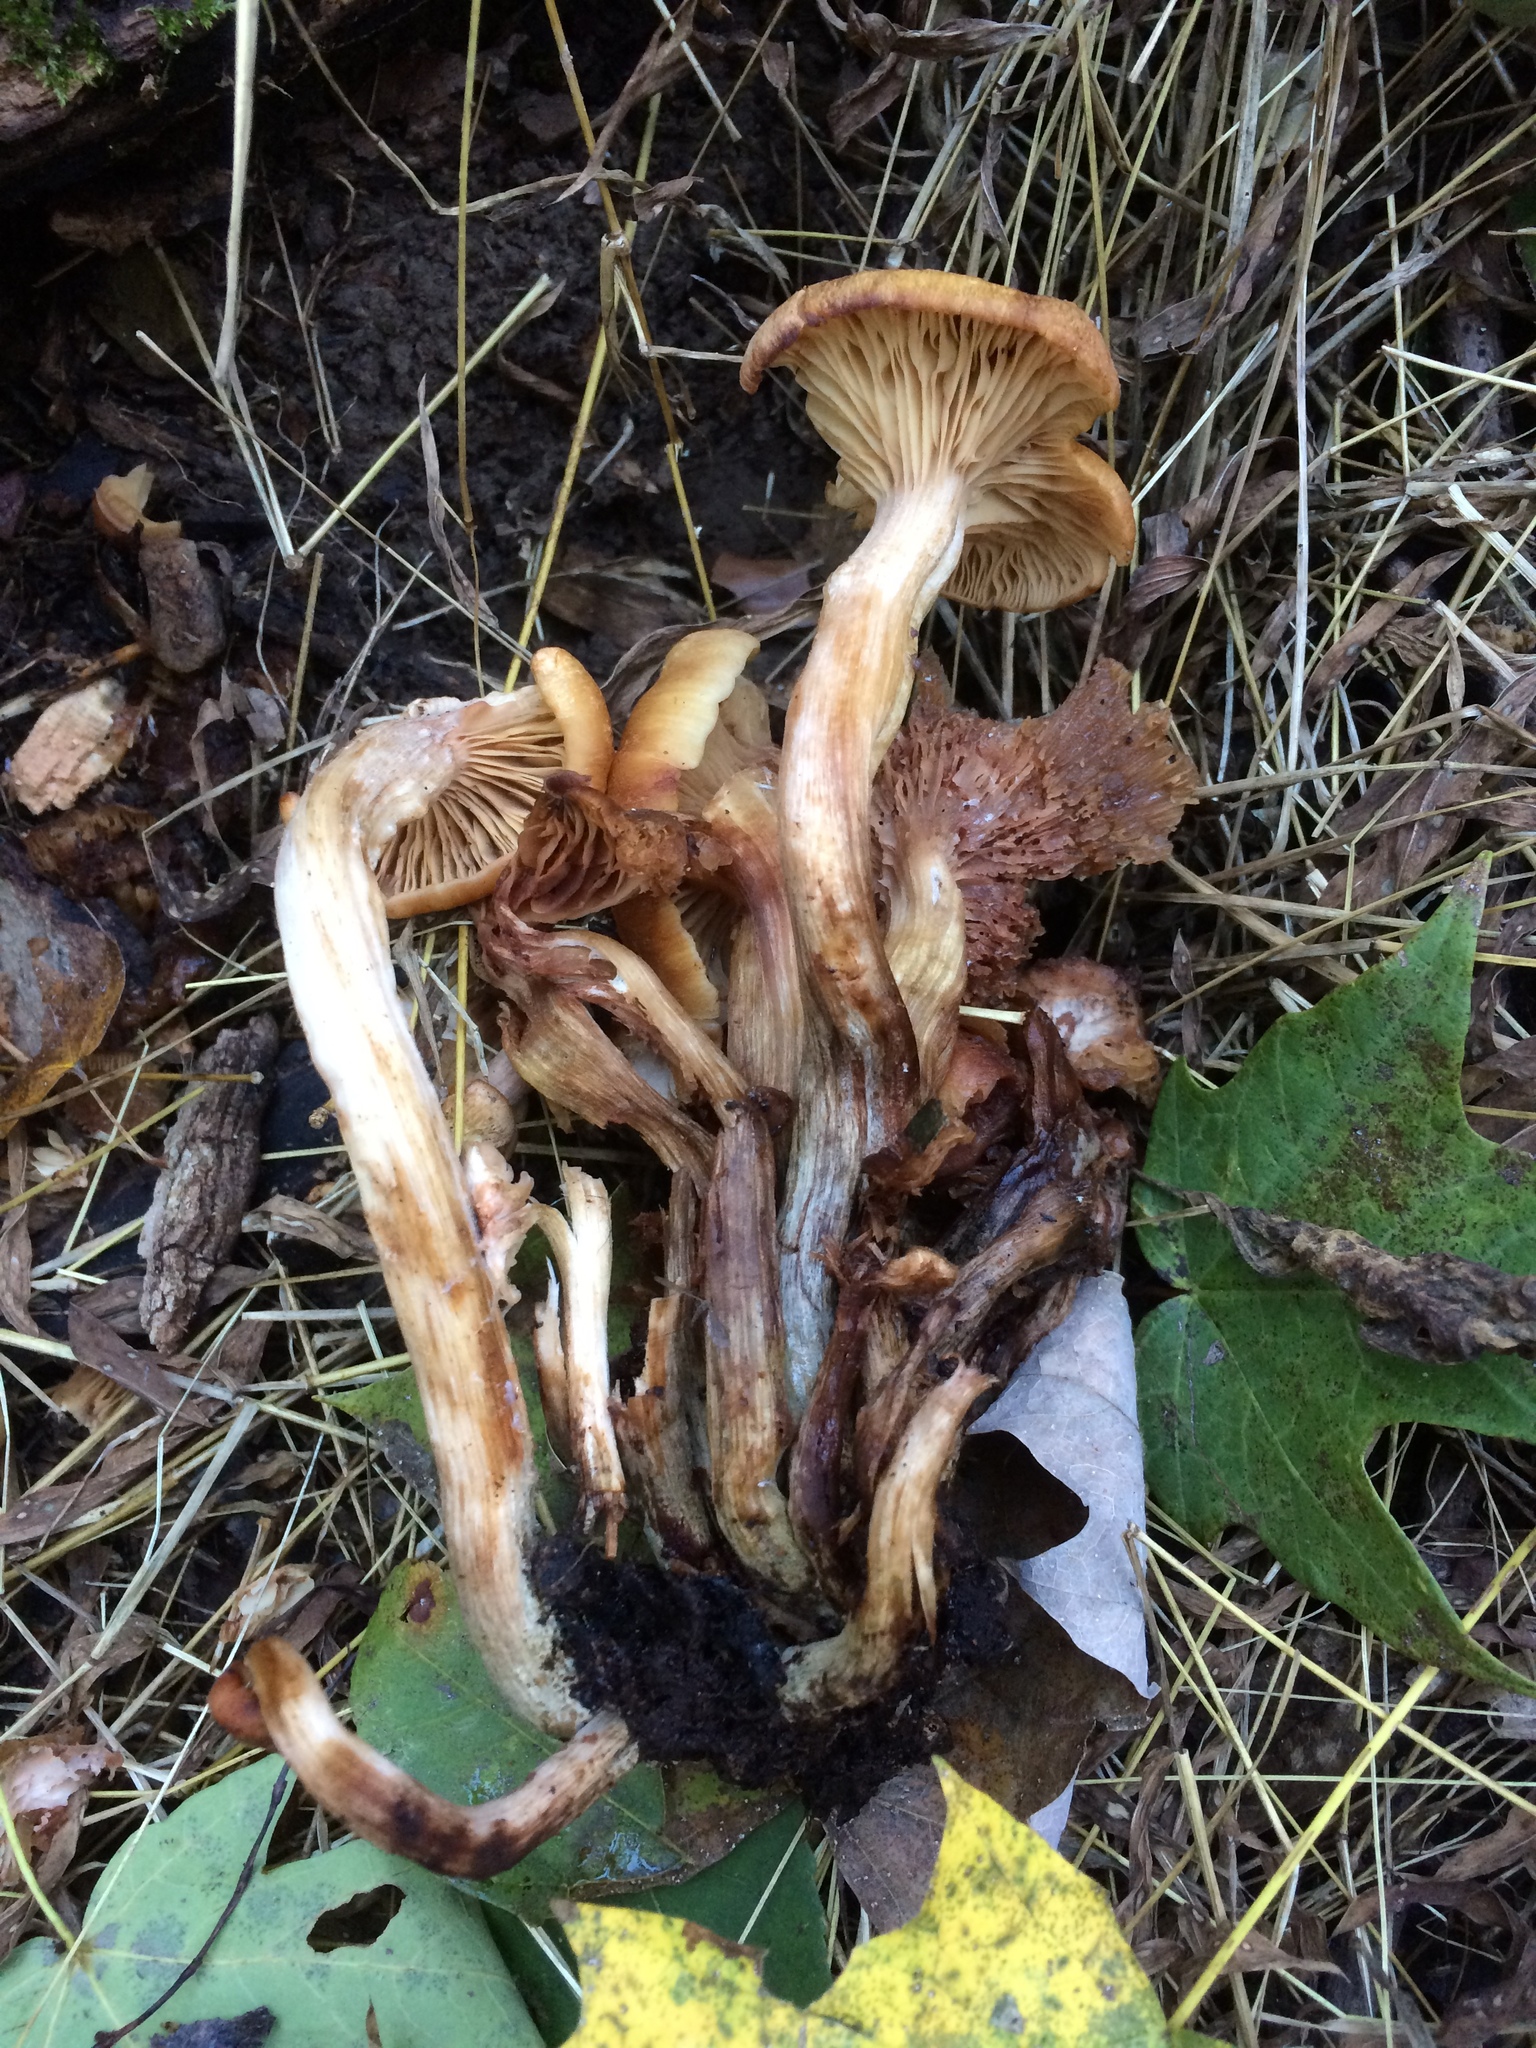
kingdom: Fungi
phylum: Basidiomycota
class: Agaricomycetes
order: Agaricales
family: Physalacriaceae
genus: Desarmillaria
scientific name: Desarmillaria caespitosa
